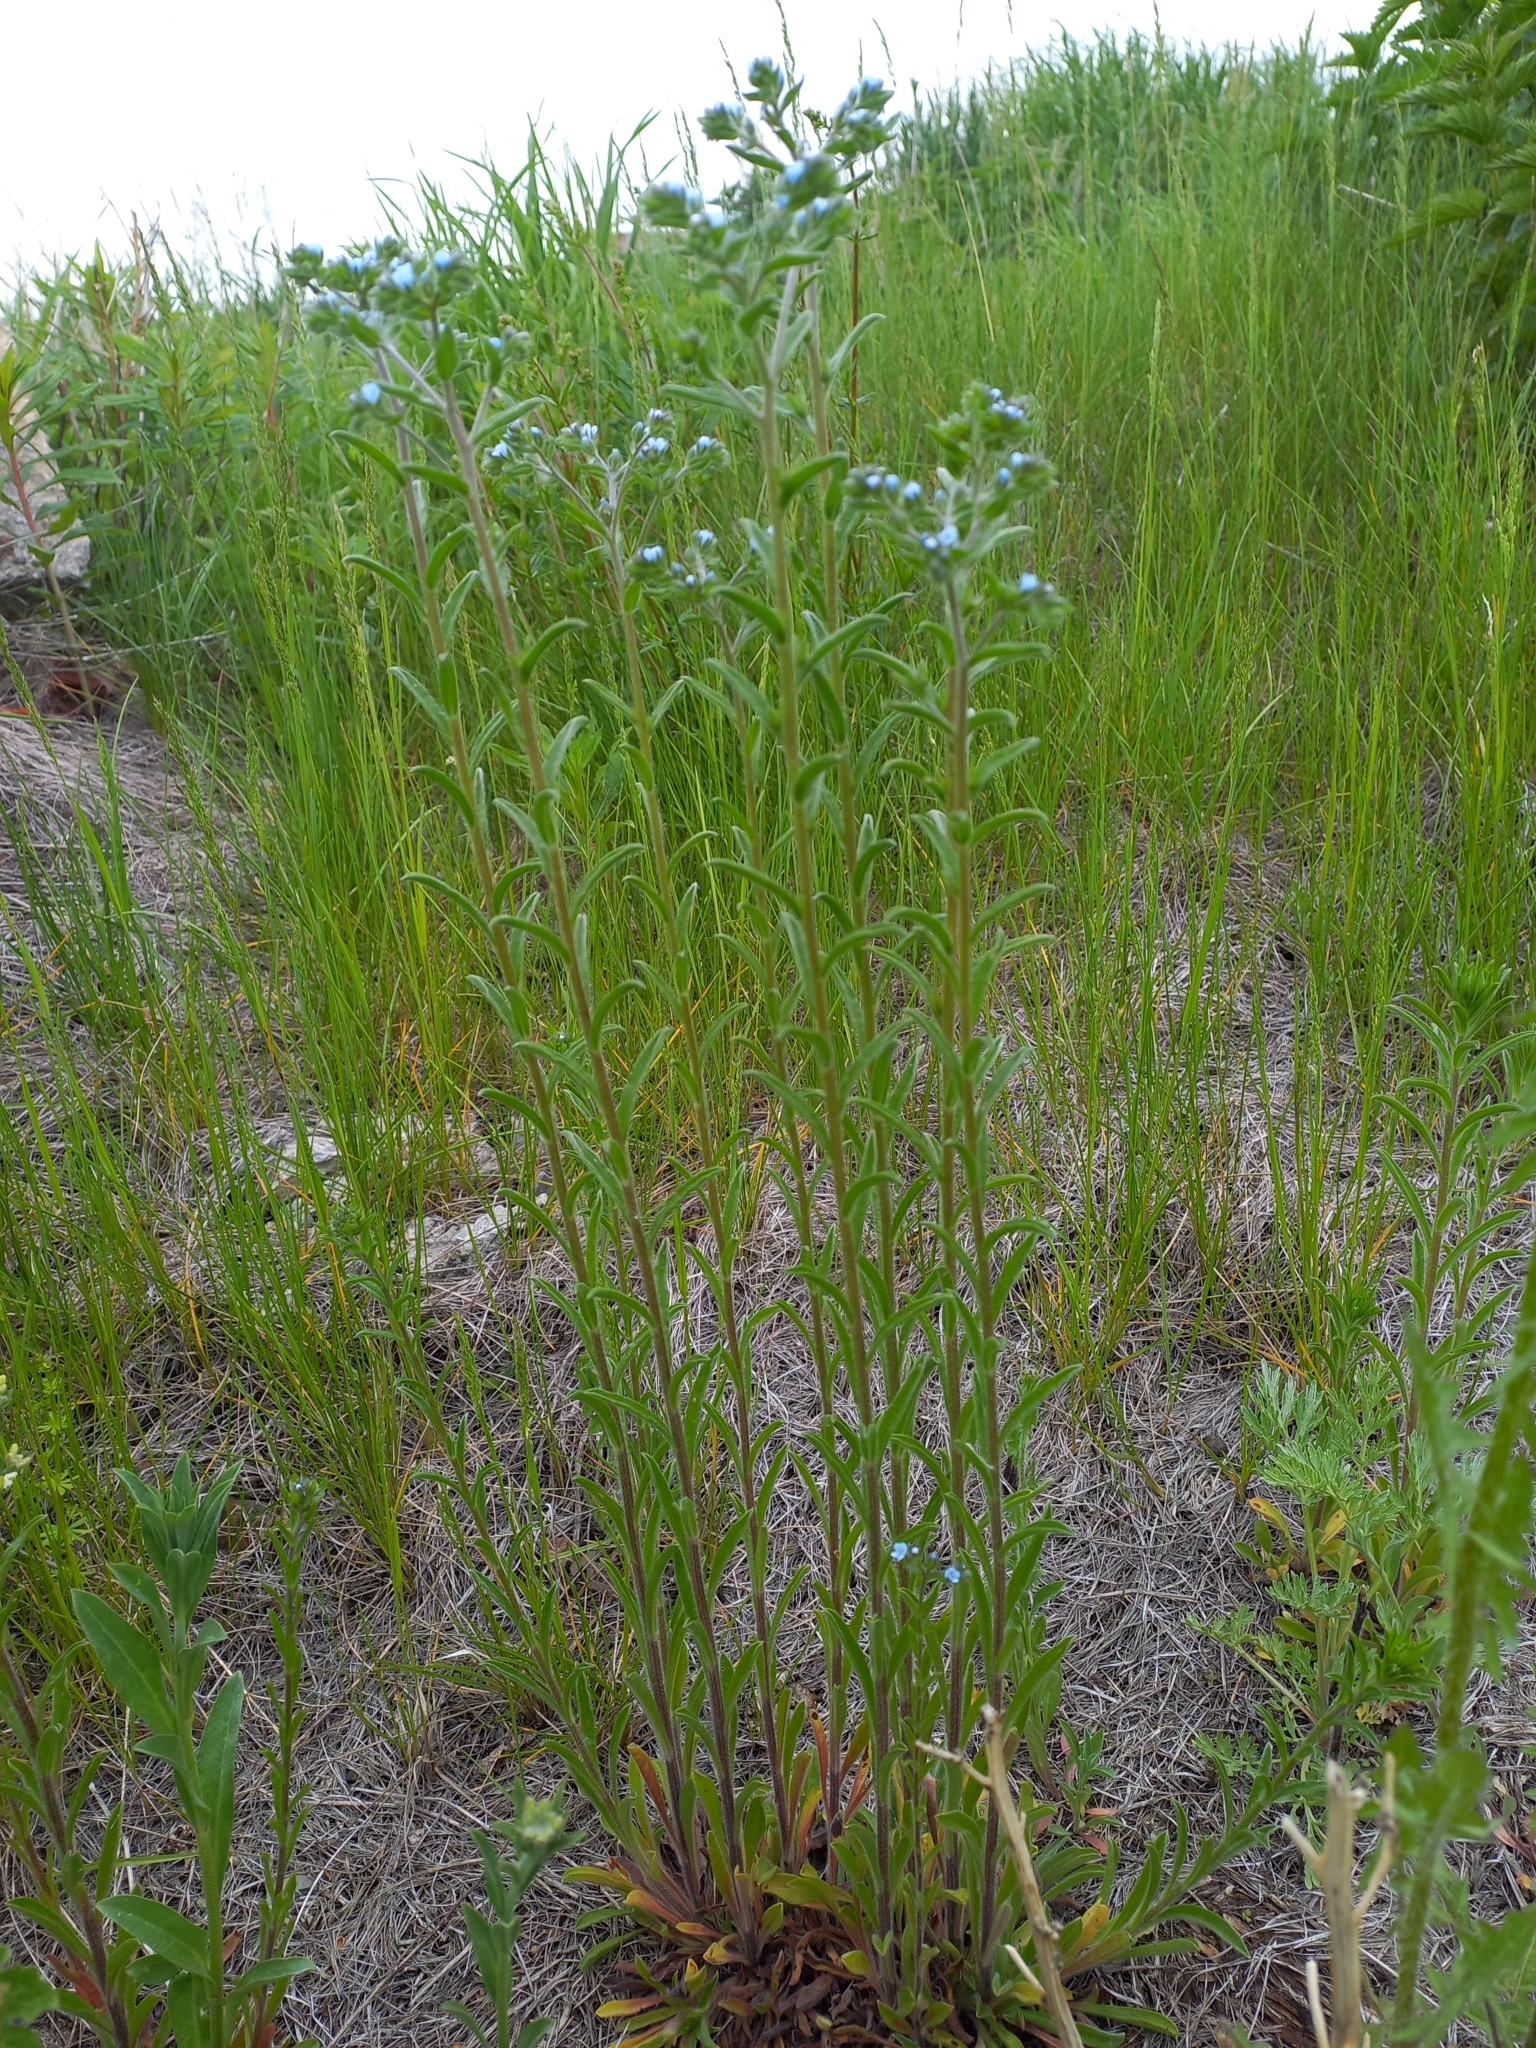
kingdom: Plantae
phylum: Tracheophyta
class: Magnoliopsida
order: Boraginales
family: Boraginaceae
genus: Lappula
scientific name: Lappula squarrosa
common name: European stickseed
